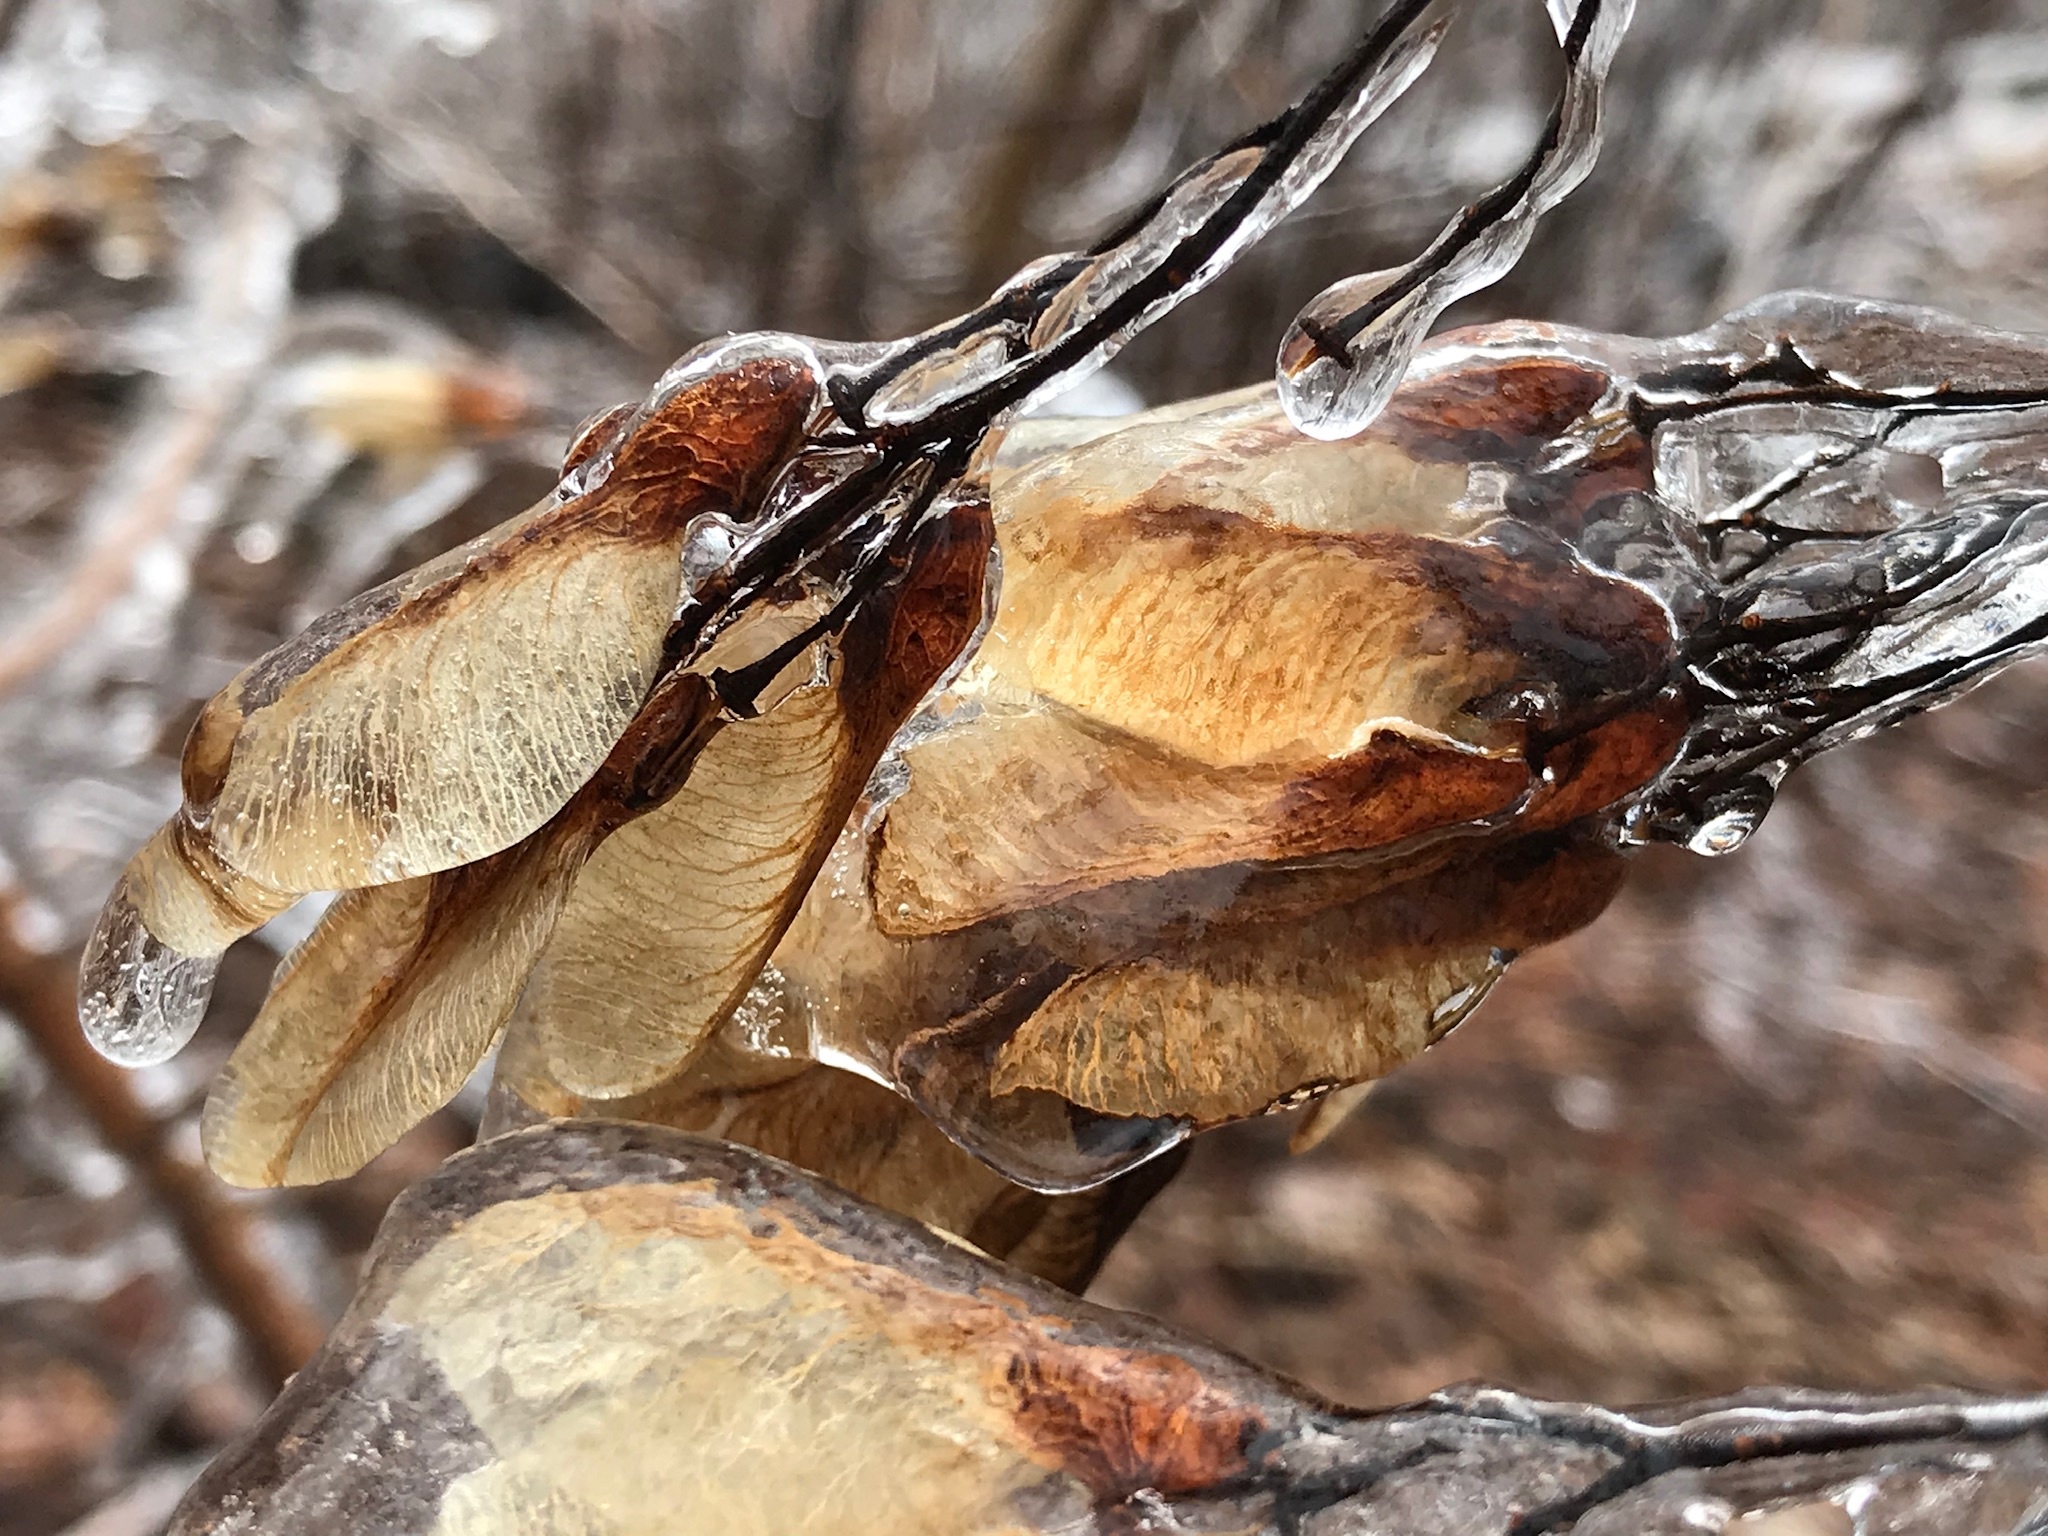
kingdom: Plantae
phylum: Tracheophyta
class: Magnoliopsida
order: Sapindales
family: Sapindaceae
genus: Acer
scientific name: Acer negundo
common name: Ashleaf maple
